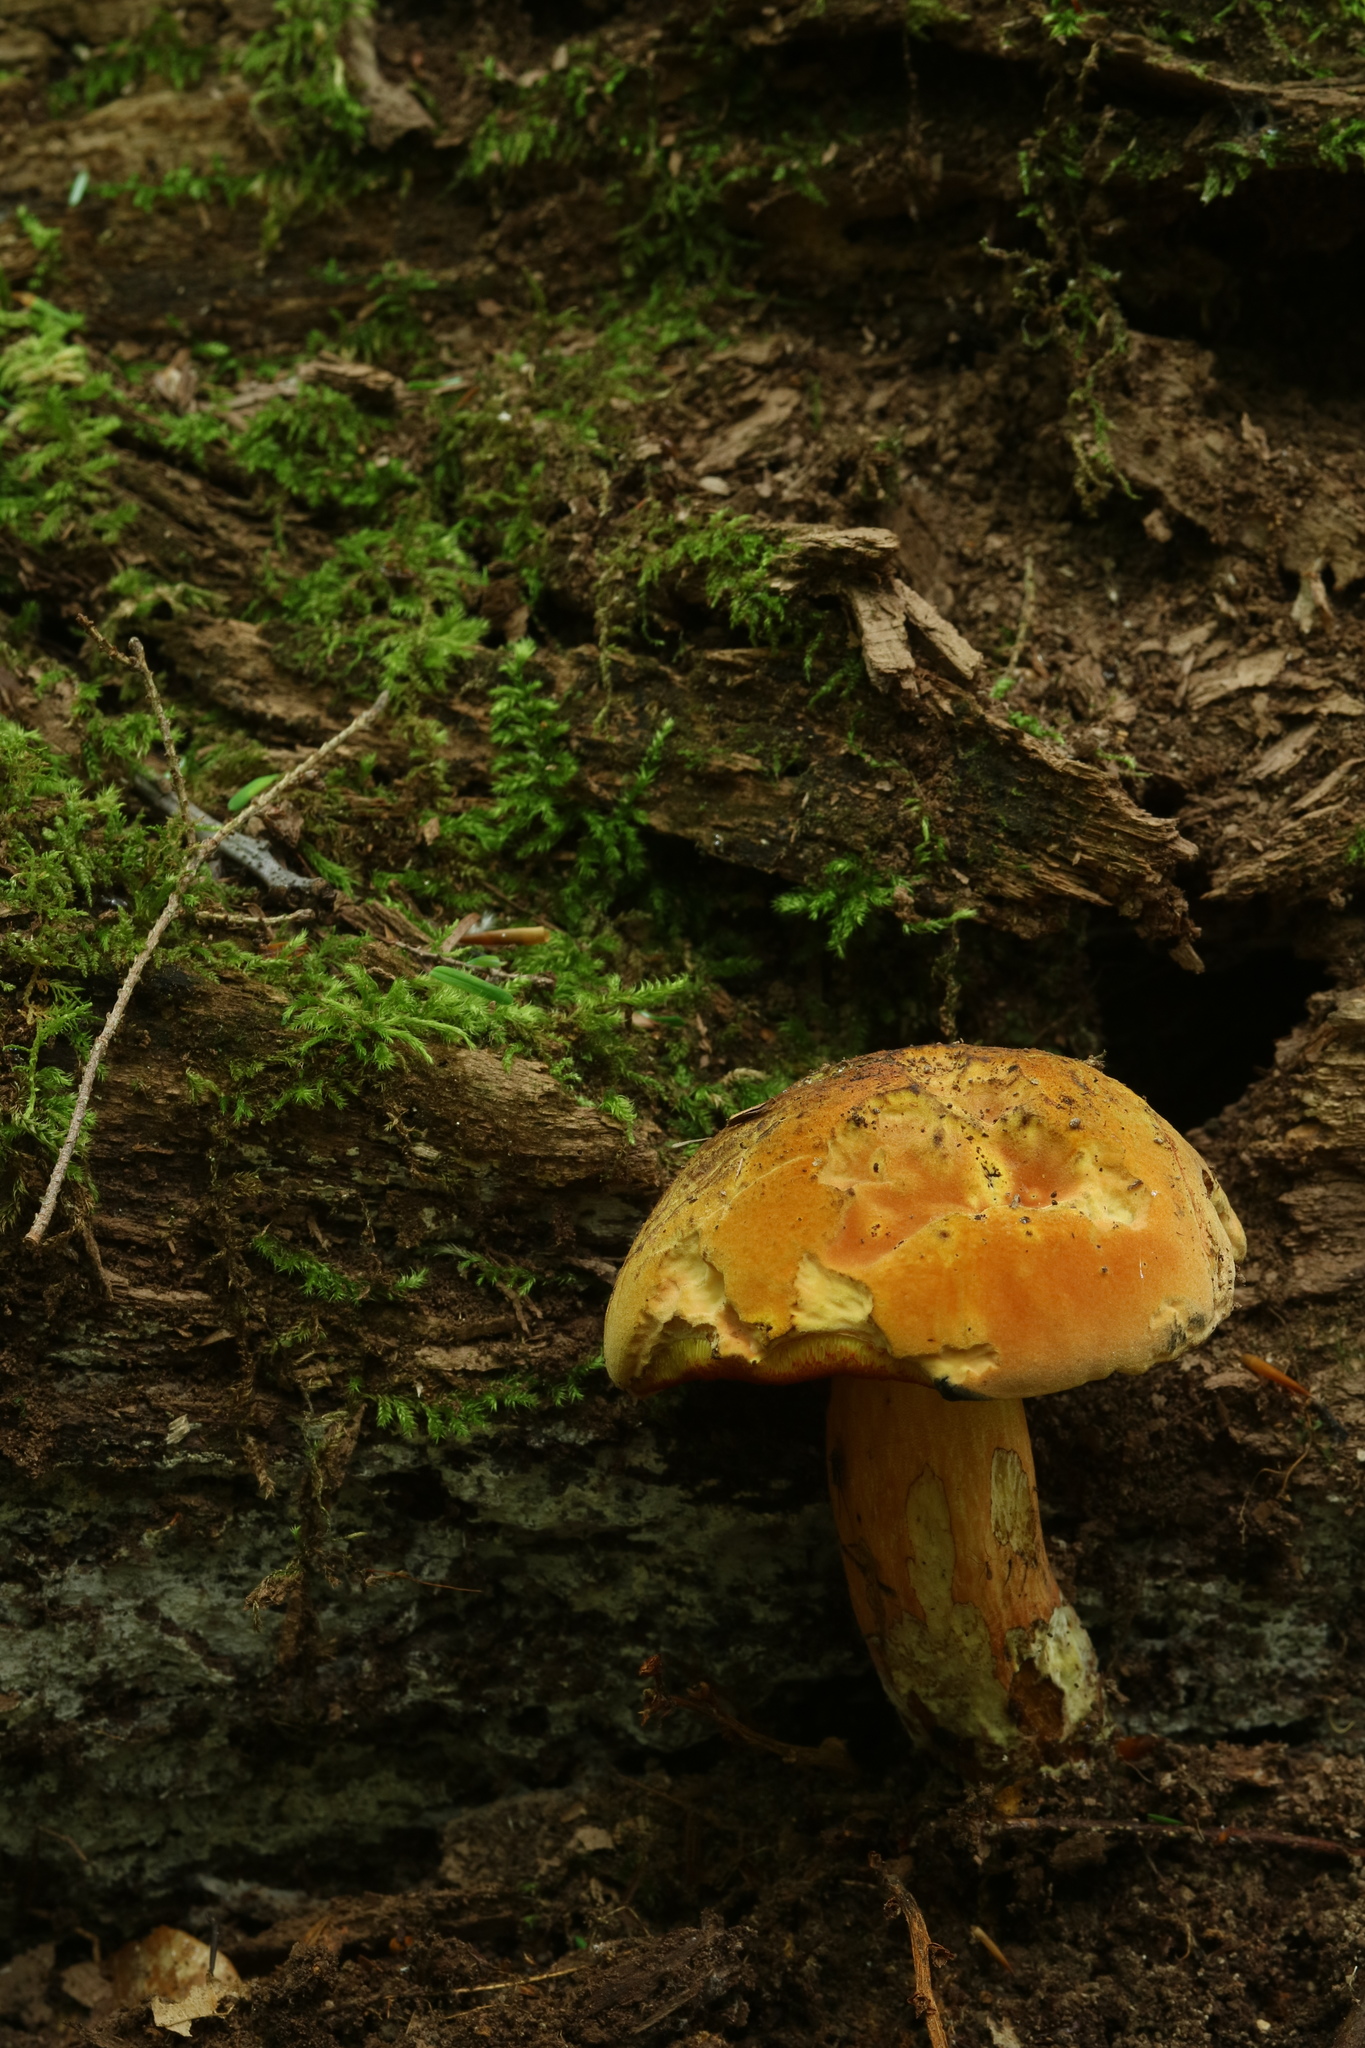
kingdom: Fungi
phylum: Basidiomycota
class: Agaricomycetes
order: Boletales
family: Boletaceae
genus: Neoboletus
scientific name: Neoboletus xanthopus
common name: False yellow bolete
